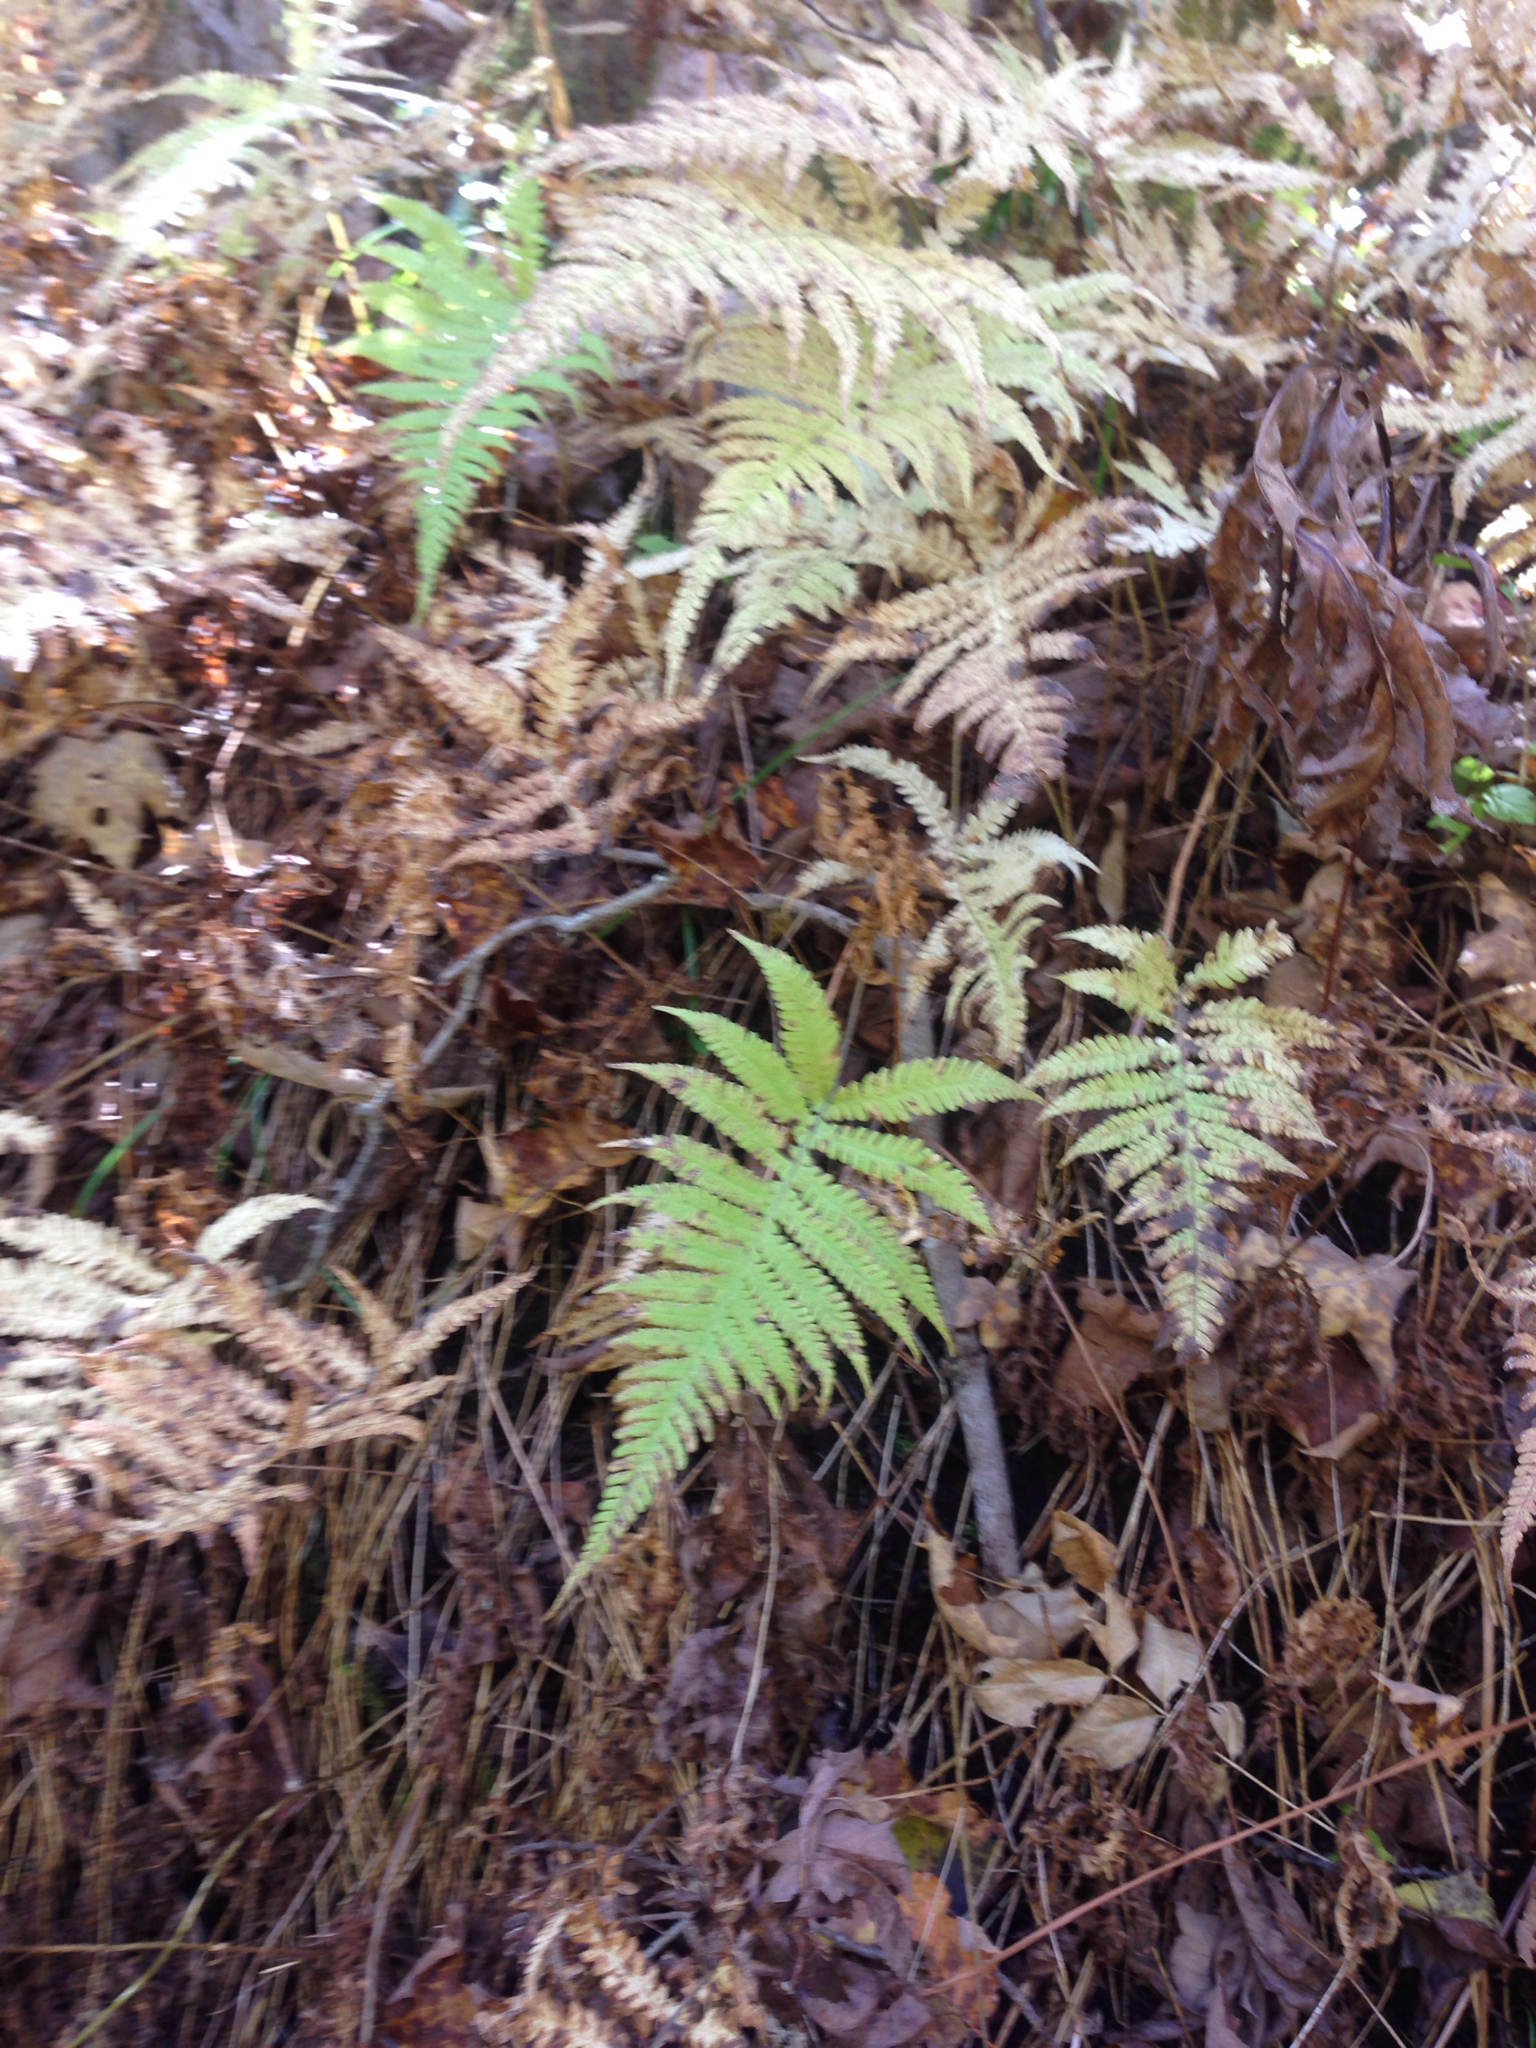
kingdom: Plantae
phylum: Tracheophyta
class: Polypodiopsida
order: Polypodiales
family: Thelypteridaceae
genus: Phegopteris
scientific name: Phegopteris connectilis
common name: Beech fern
